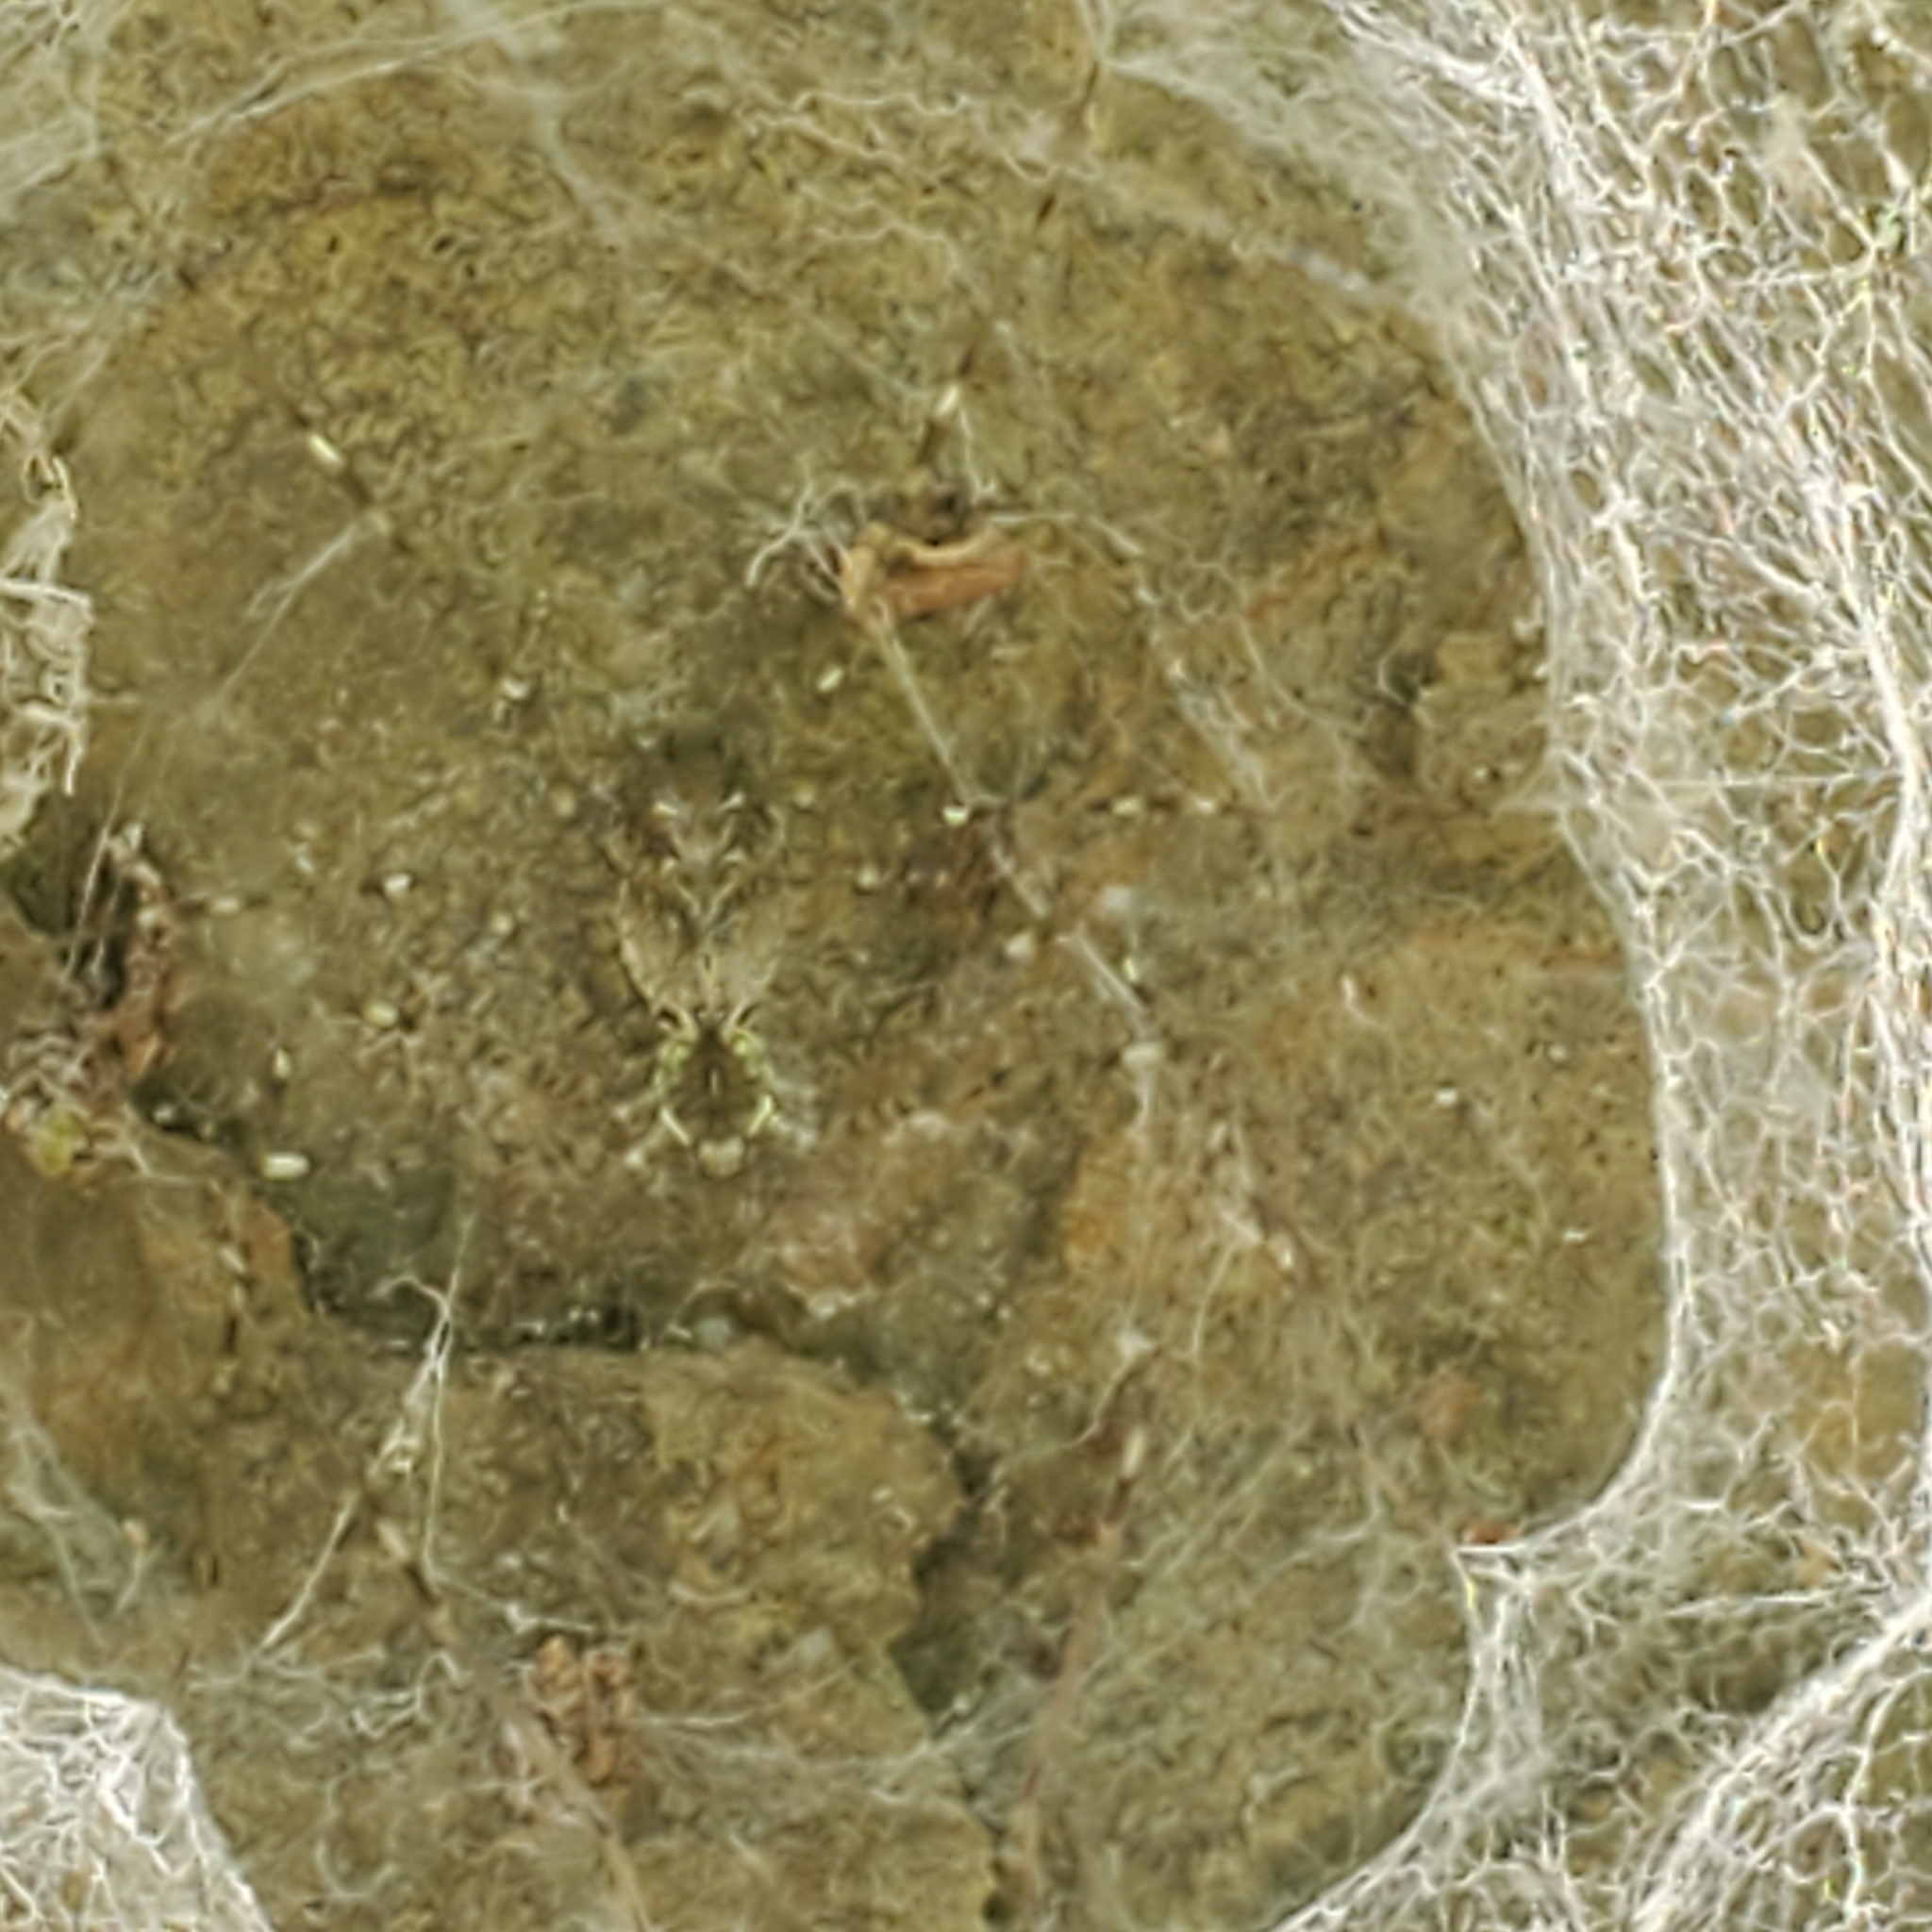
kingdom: Animalia
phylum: Arthropoda
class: Arachnida
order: Araneae
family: Hypochilidae
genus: Hypochilus
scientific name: Hypochilus pococki
